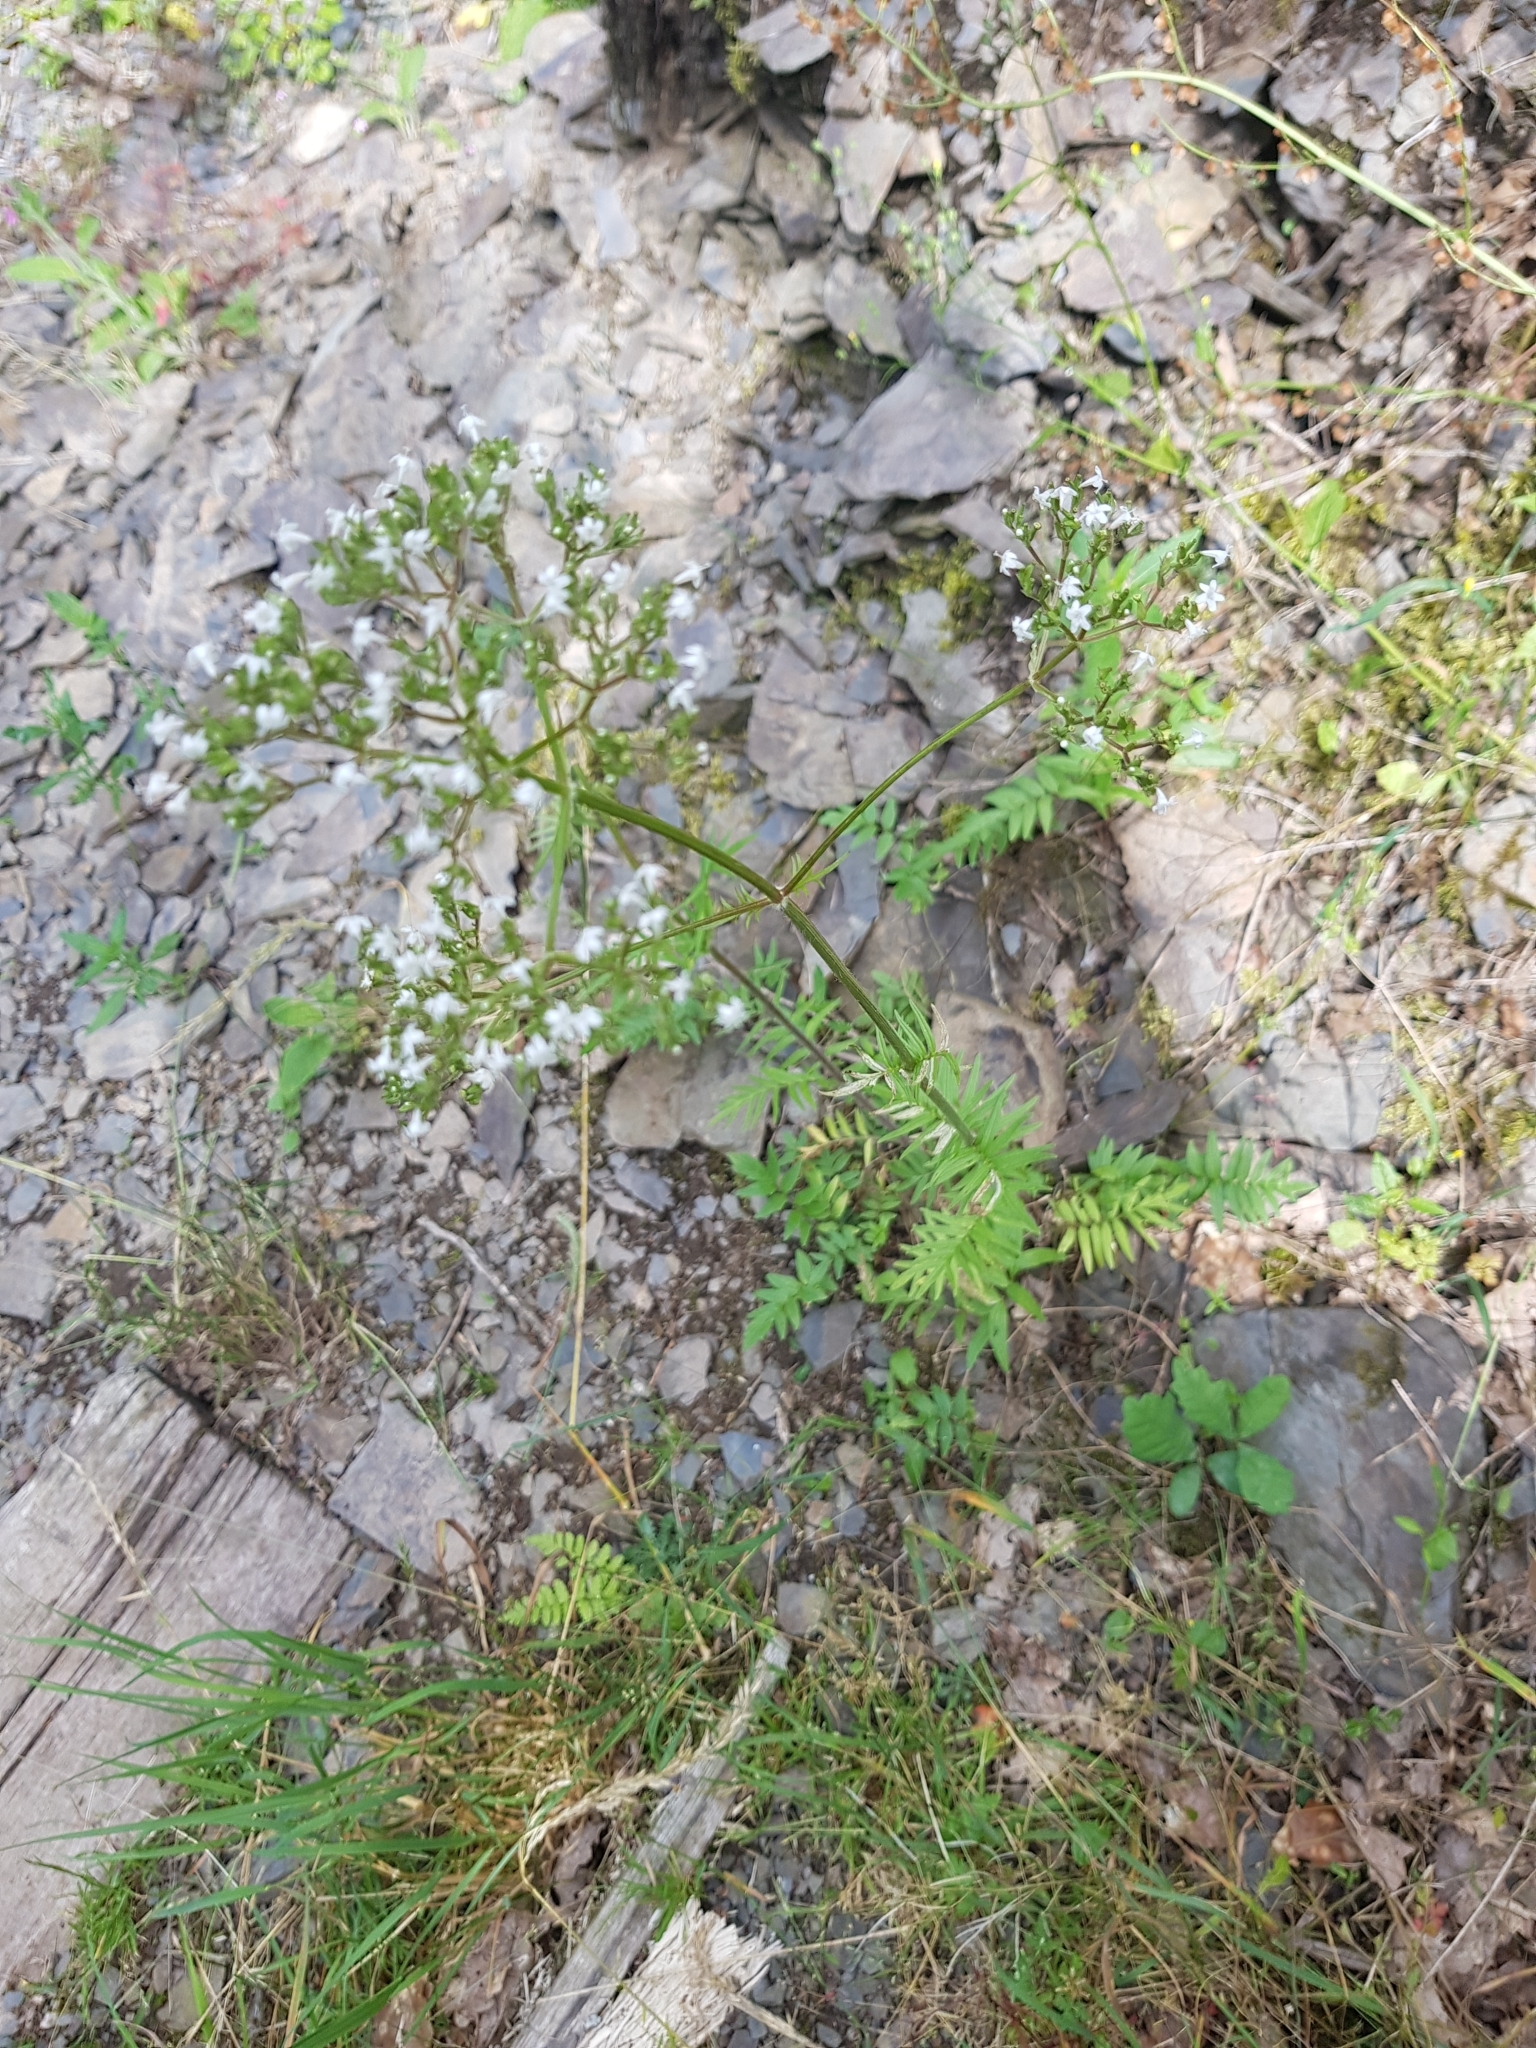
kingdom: Plantae
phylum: Tracheophyta
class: Magnoliopsida
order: Dipsacales
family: Caprifoliaceae
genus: Valeriana
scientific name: Valeriana officinalis
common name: Common valerian
